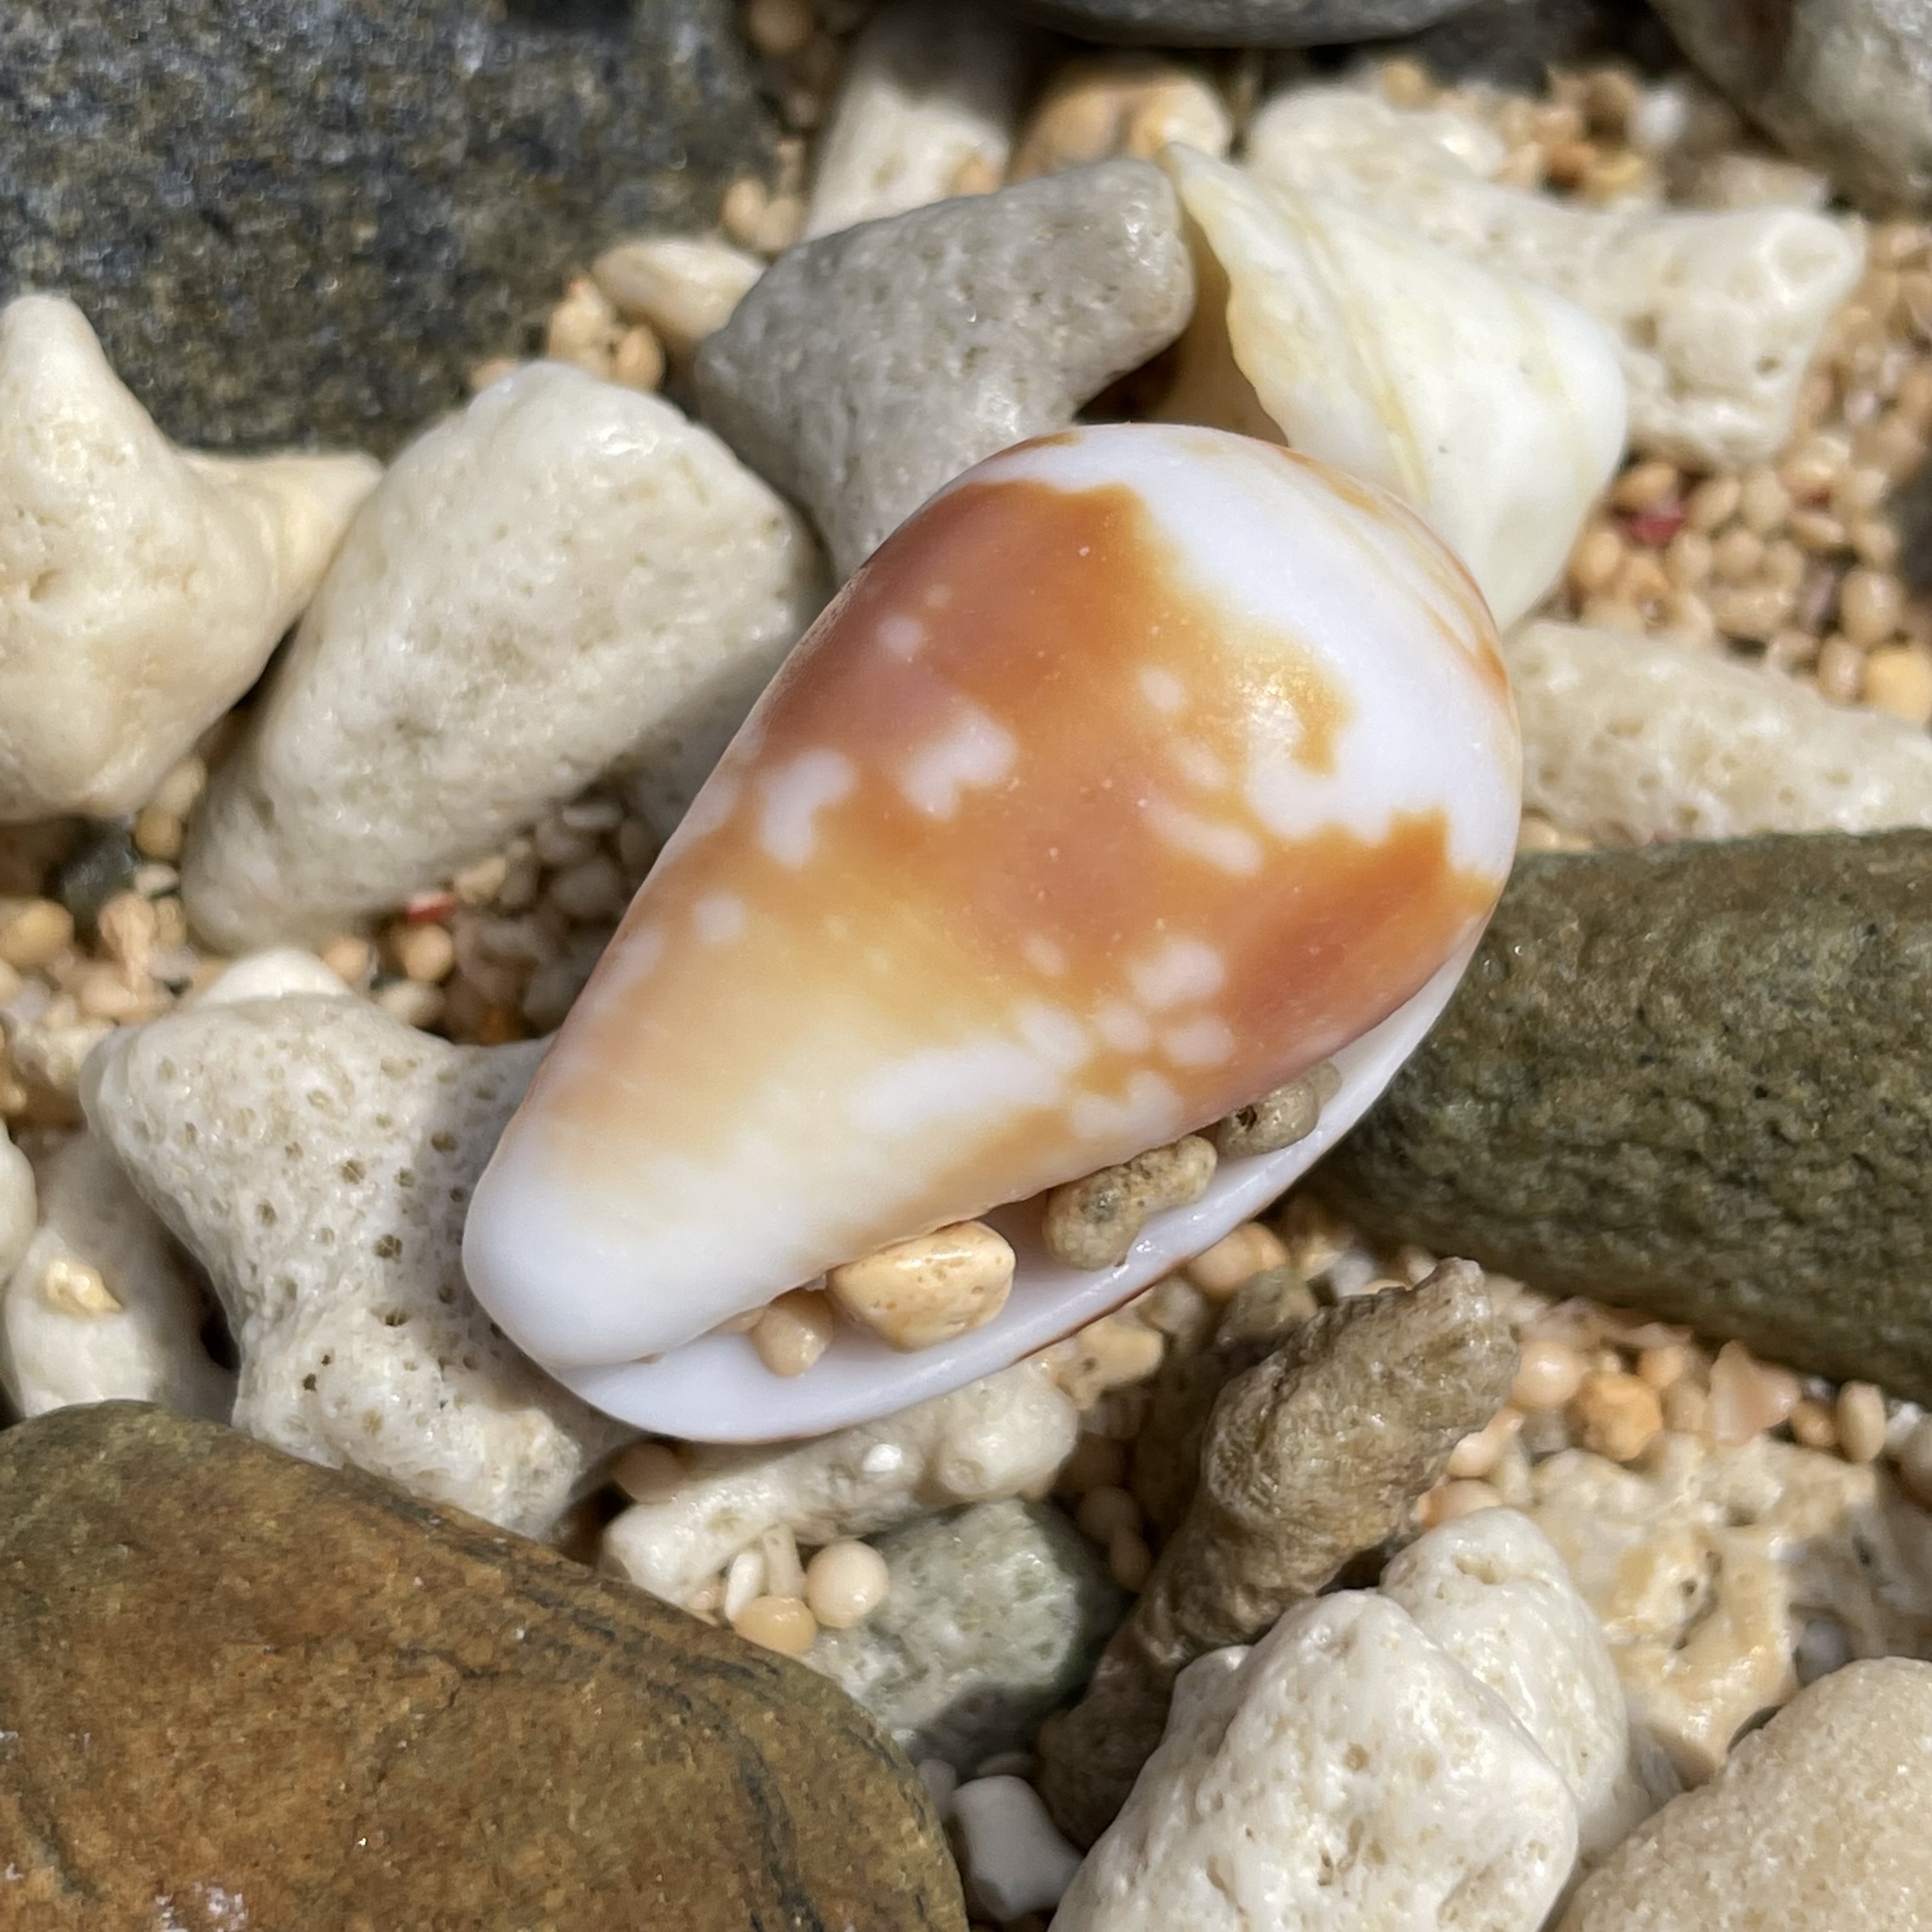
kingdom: Animalia
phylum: Mollusca
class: Gastropoda
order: Neogastropoda
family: Conidae
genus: Conus
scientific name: Conus catus
